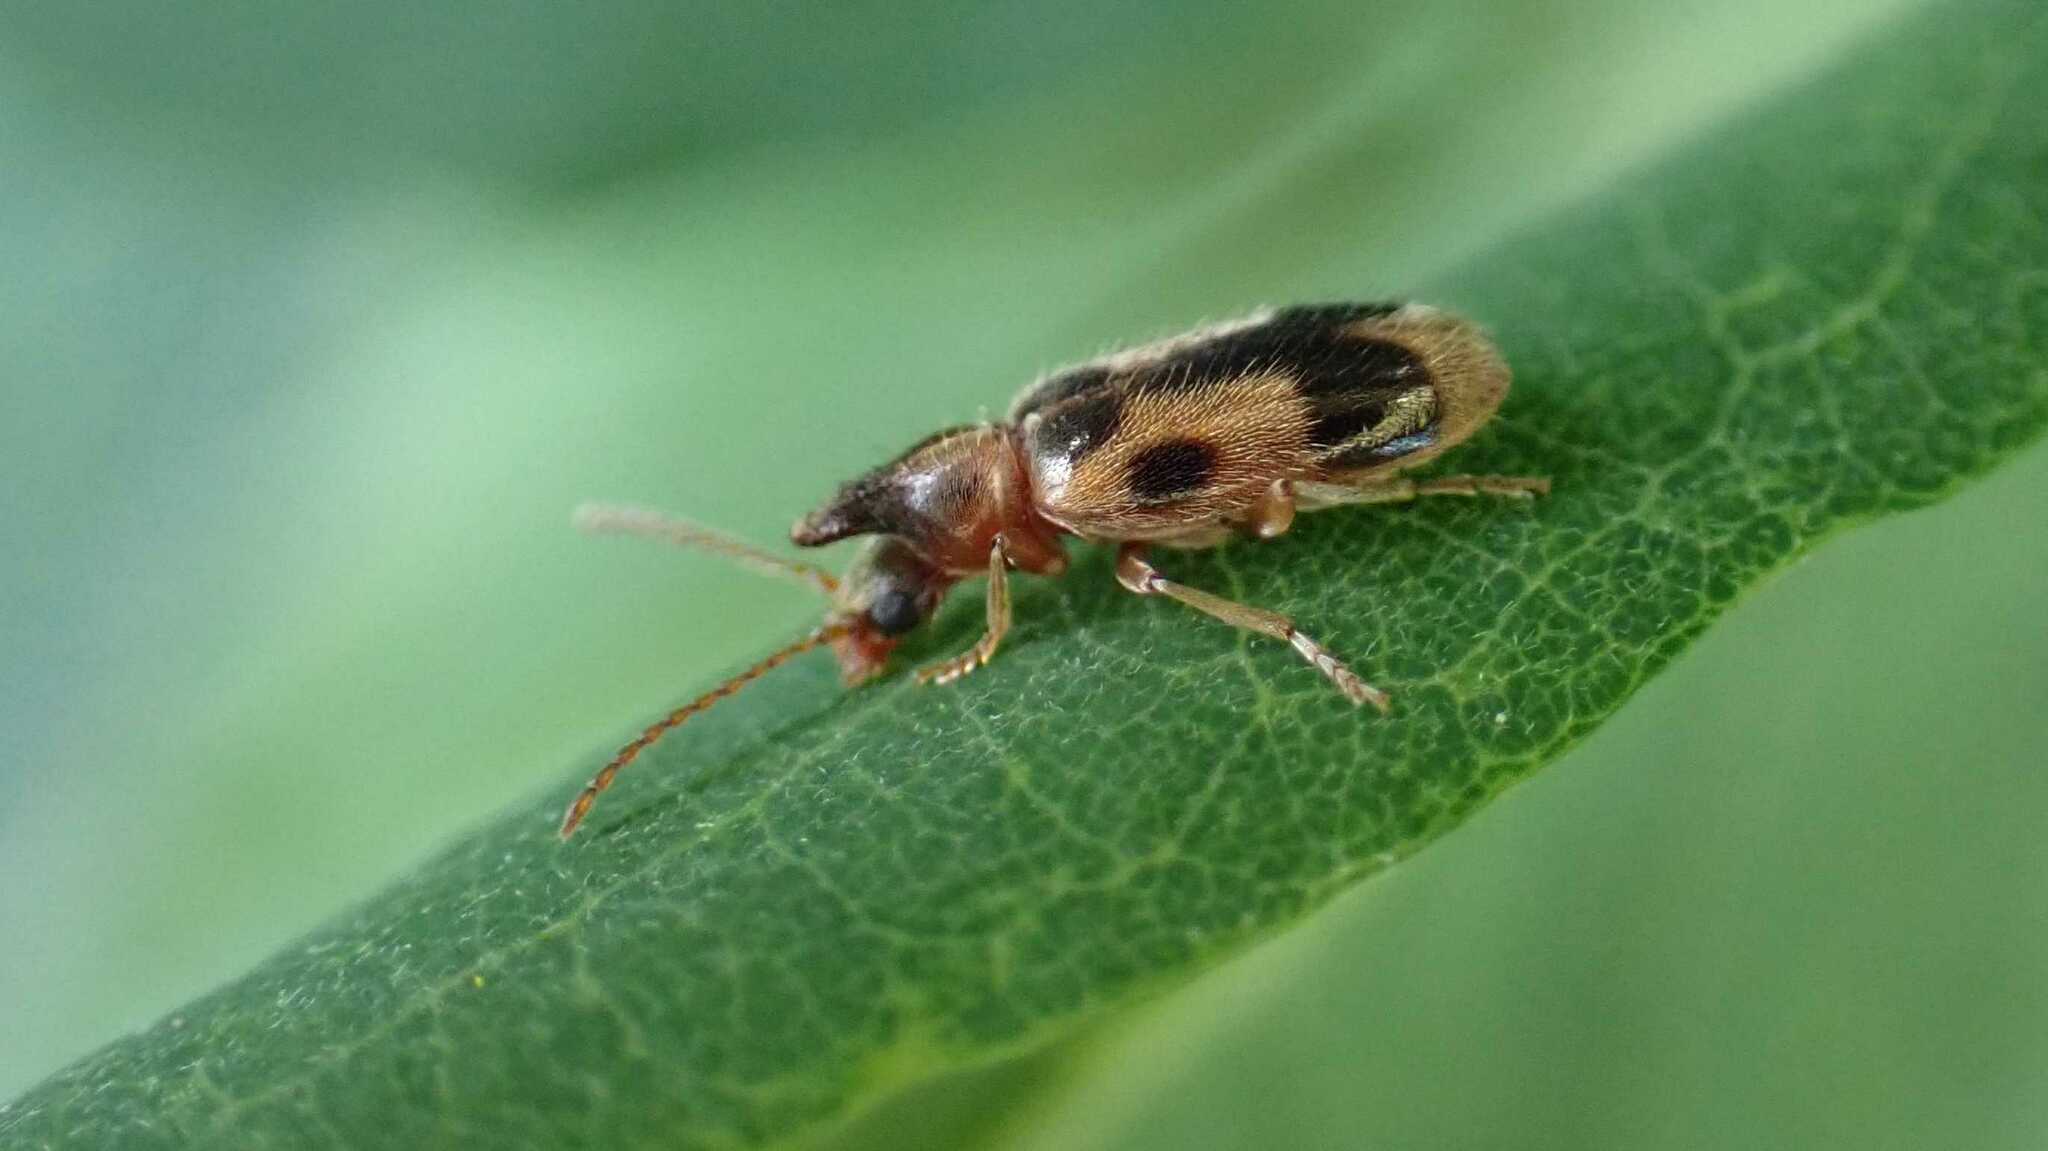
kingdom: Animalia
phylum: Arthropoda
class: Insecta
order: Coleoptera
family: Anthicidae
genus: Notoxus
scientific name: Notoxus monoceros
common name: Monoceros beetle
